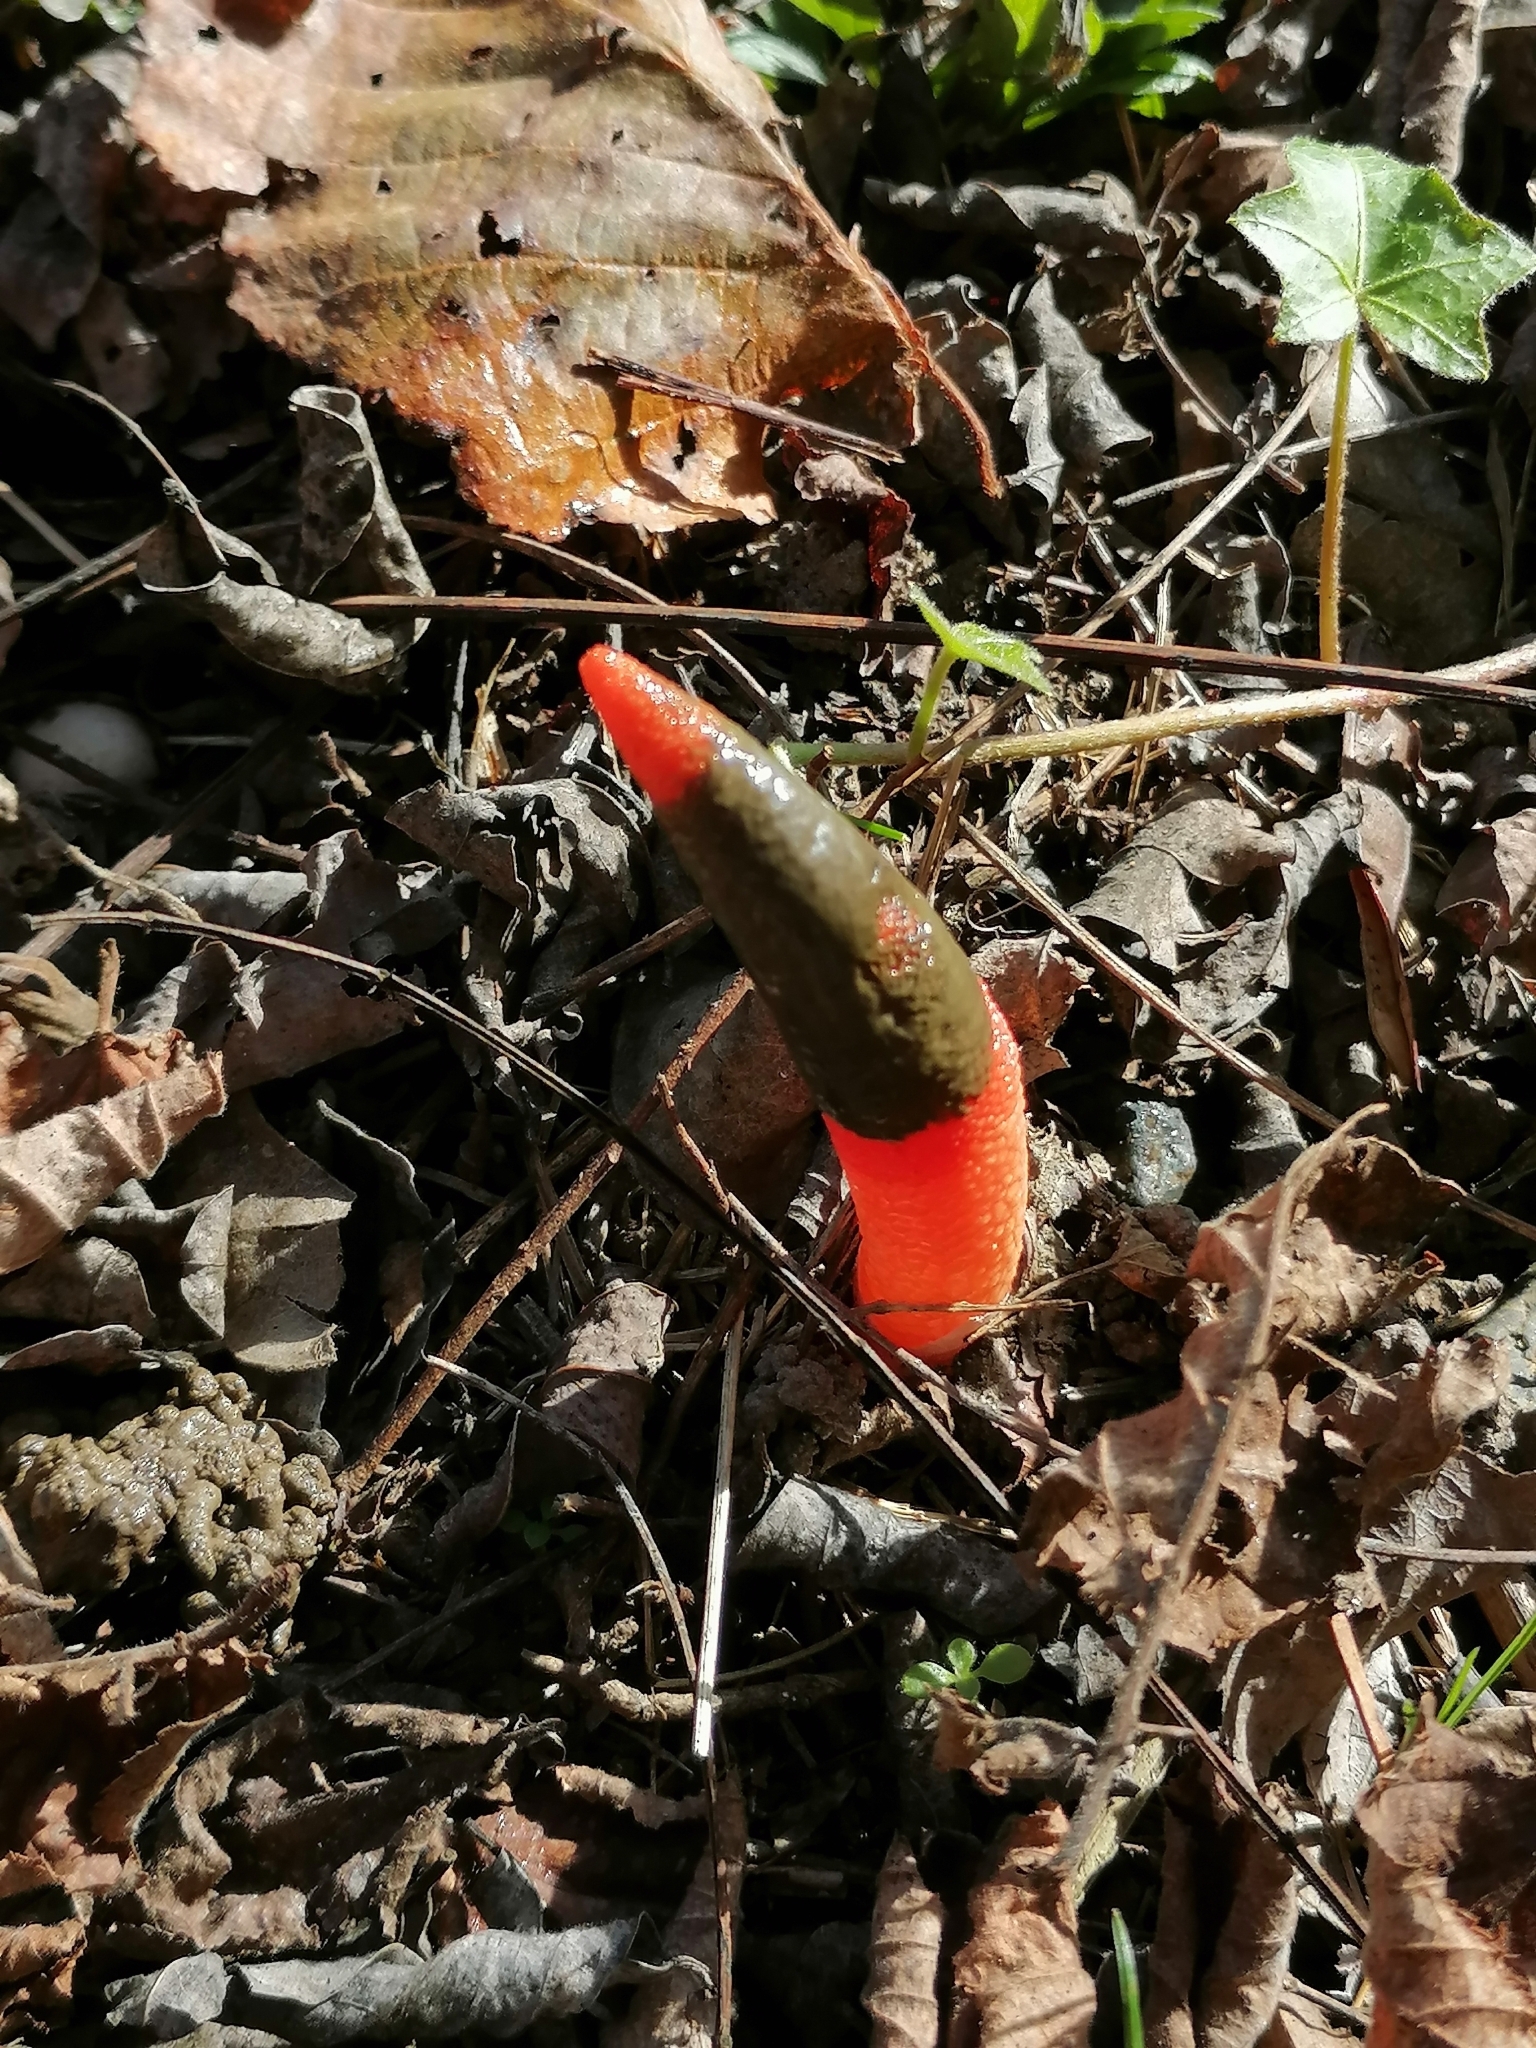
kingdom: Fungi
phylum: Basidiomycota
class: Agaricomycetes
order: Phallales
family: Phallaceae
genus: Mutinus
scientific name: Mutinus elegans
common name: Devil's dipstick
